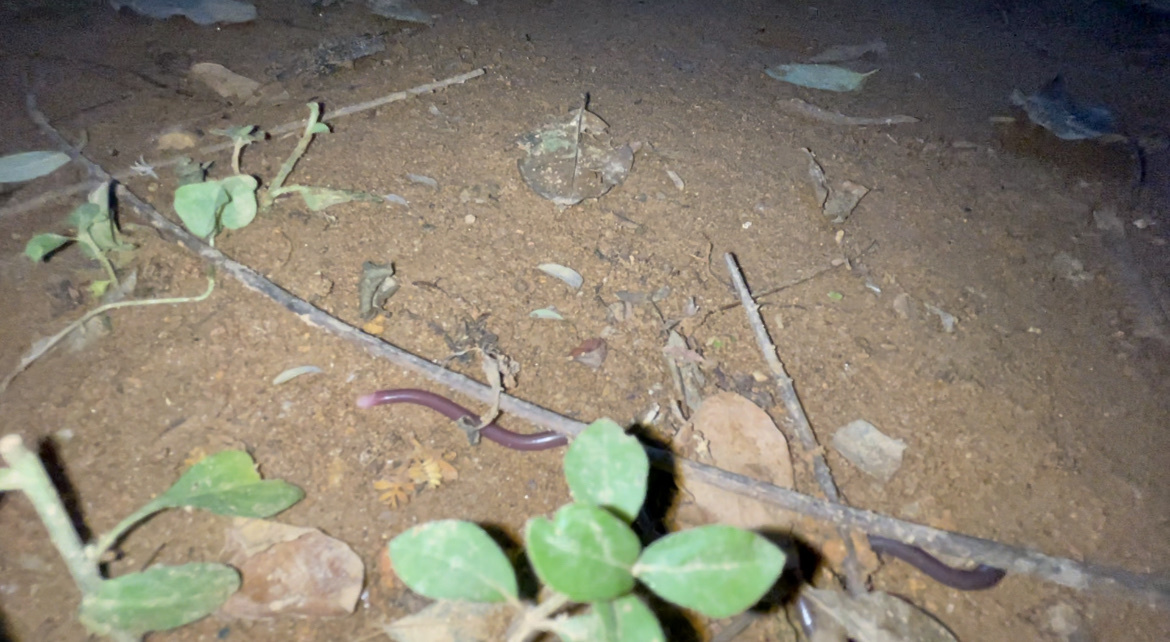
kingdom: Animalia
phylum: Chordata
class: Squamata
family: Typhlopidae
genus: Indotyphlops
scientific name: Indotyphlops albiceps
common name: White-headed blind snake
